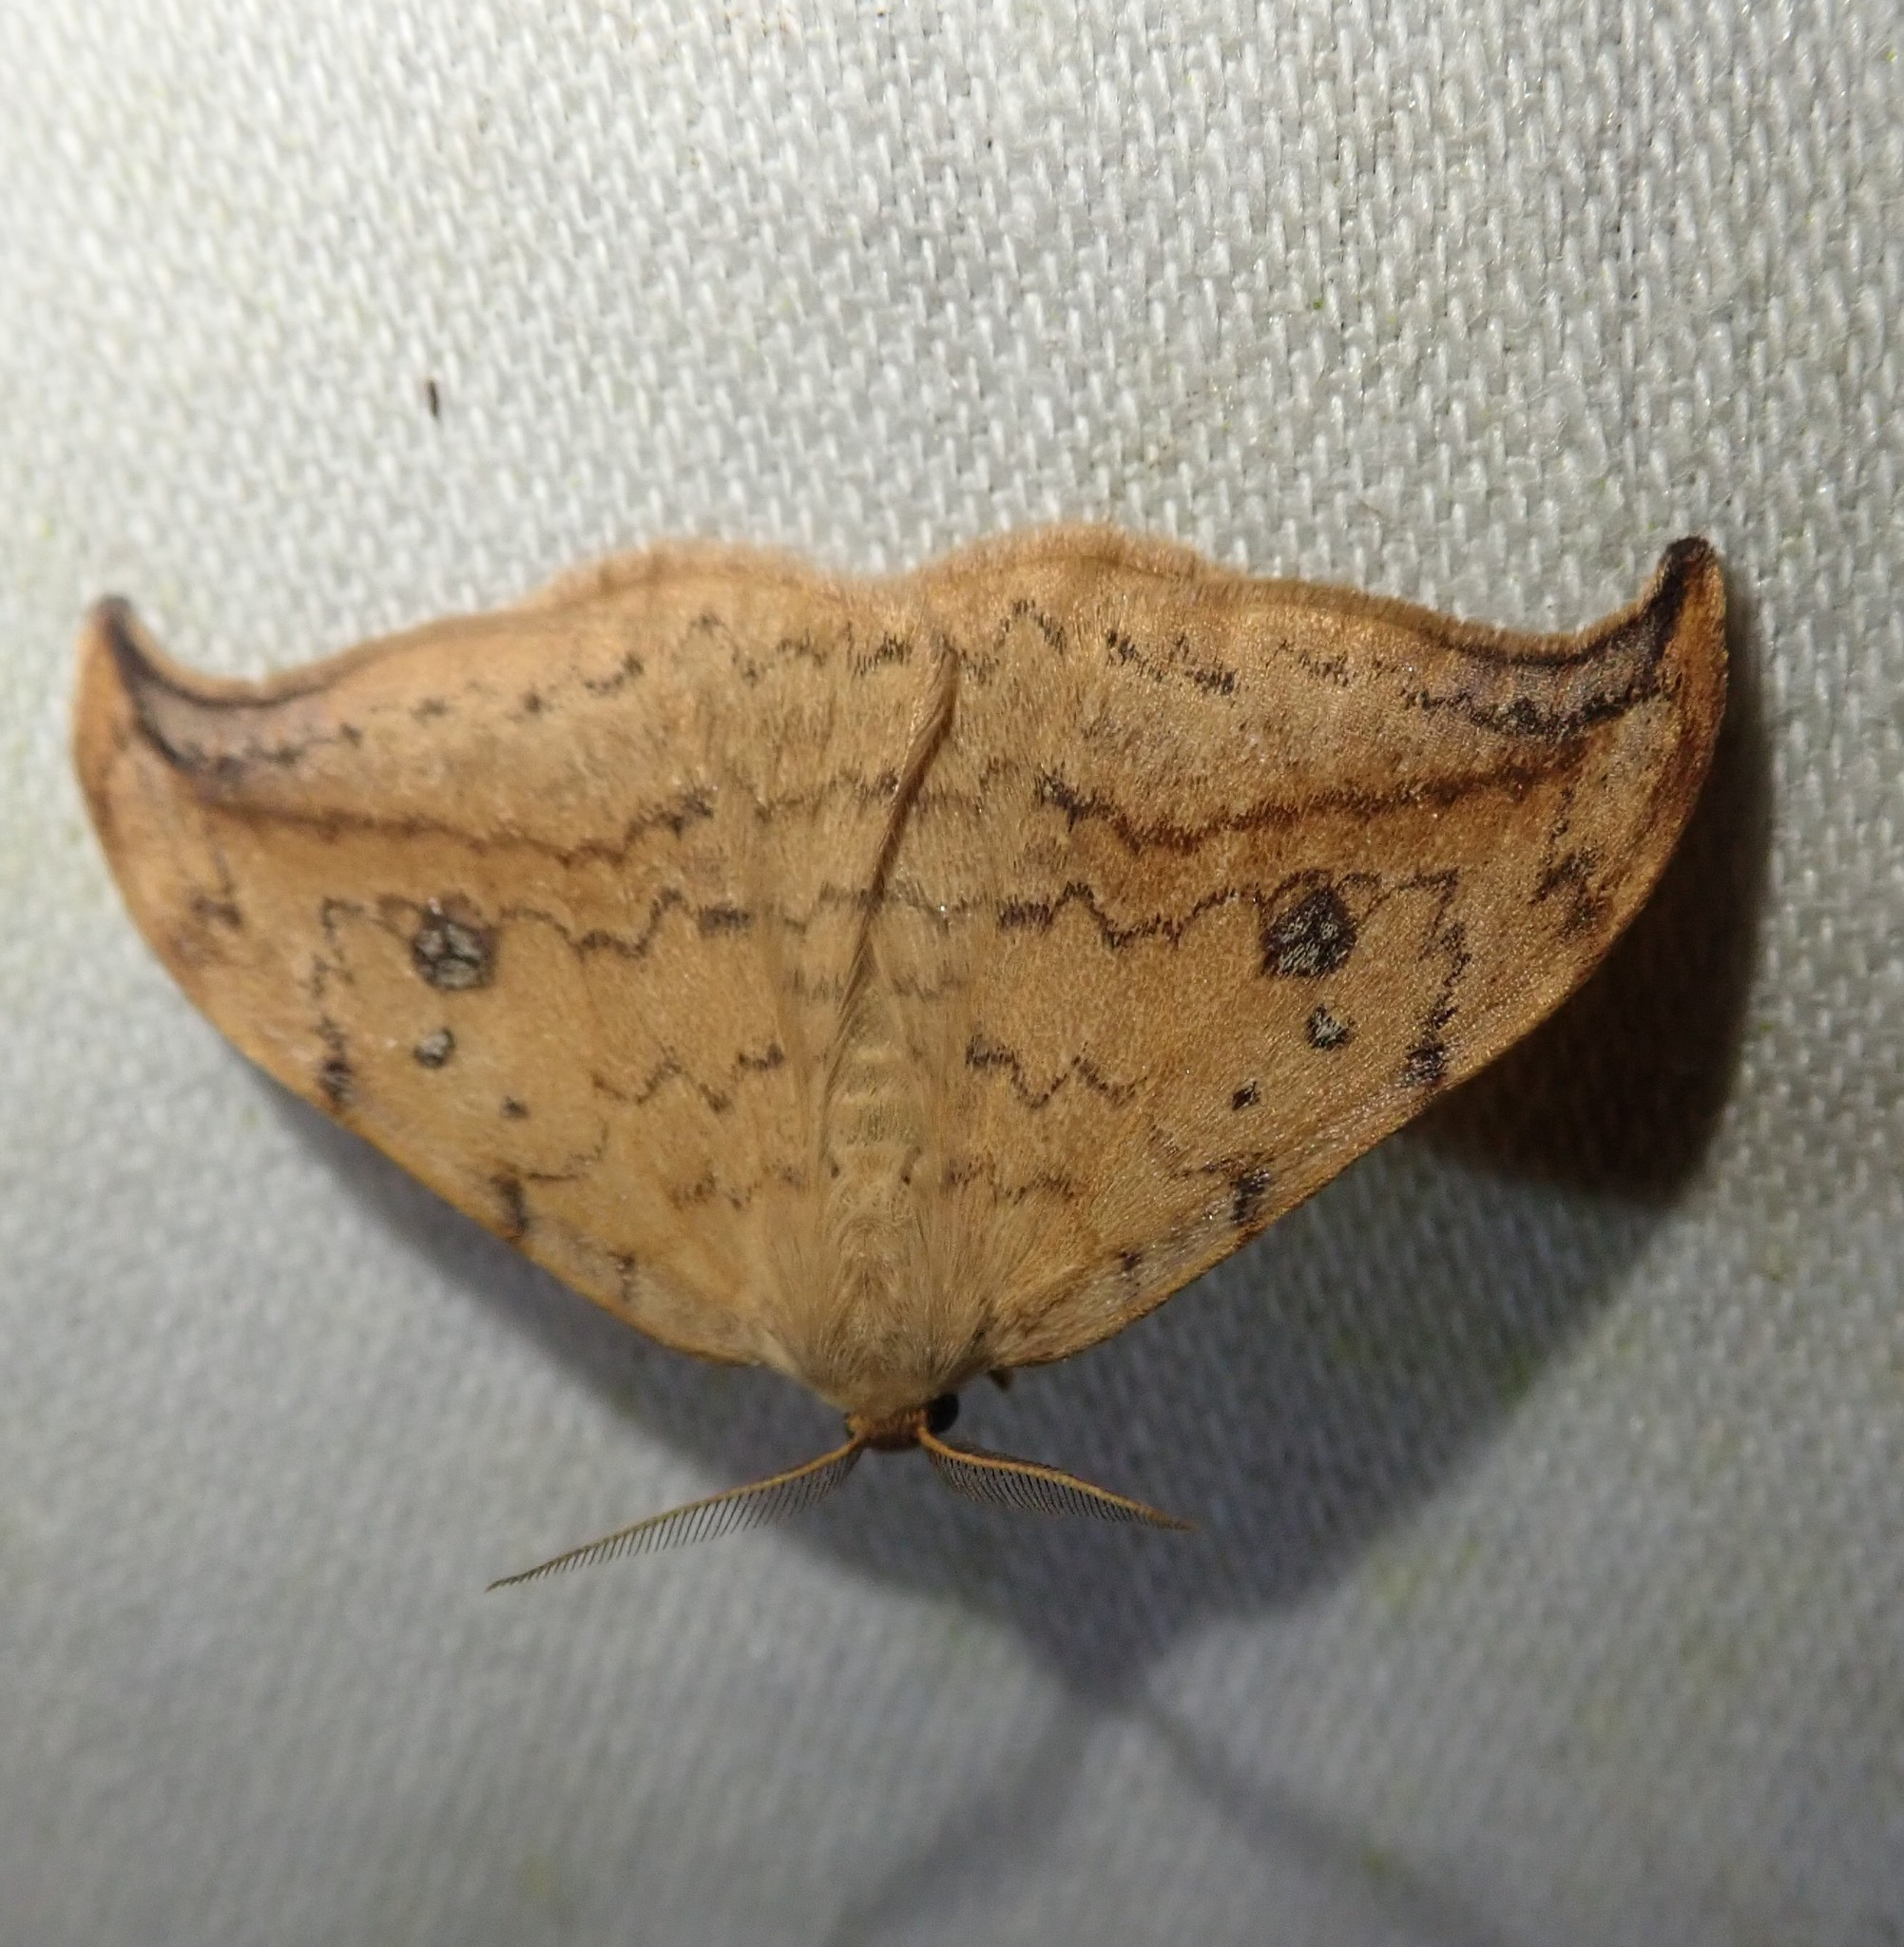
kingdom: Animalia
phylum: Arthropoda
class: Insecta
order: Lepidoptera
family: Drepanidae
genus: Drepana
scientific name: Drepana falcataria
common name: Pebble hook-tip
